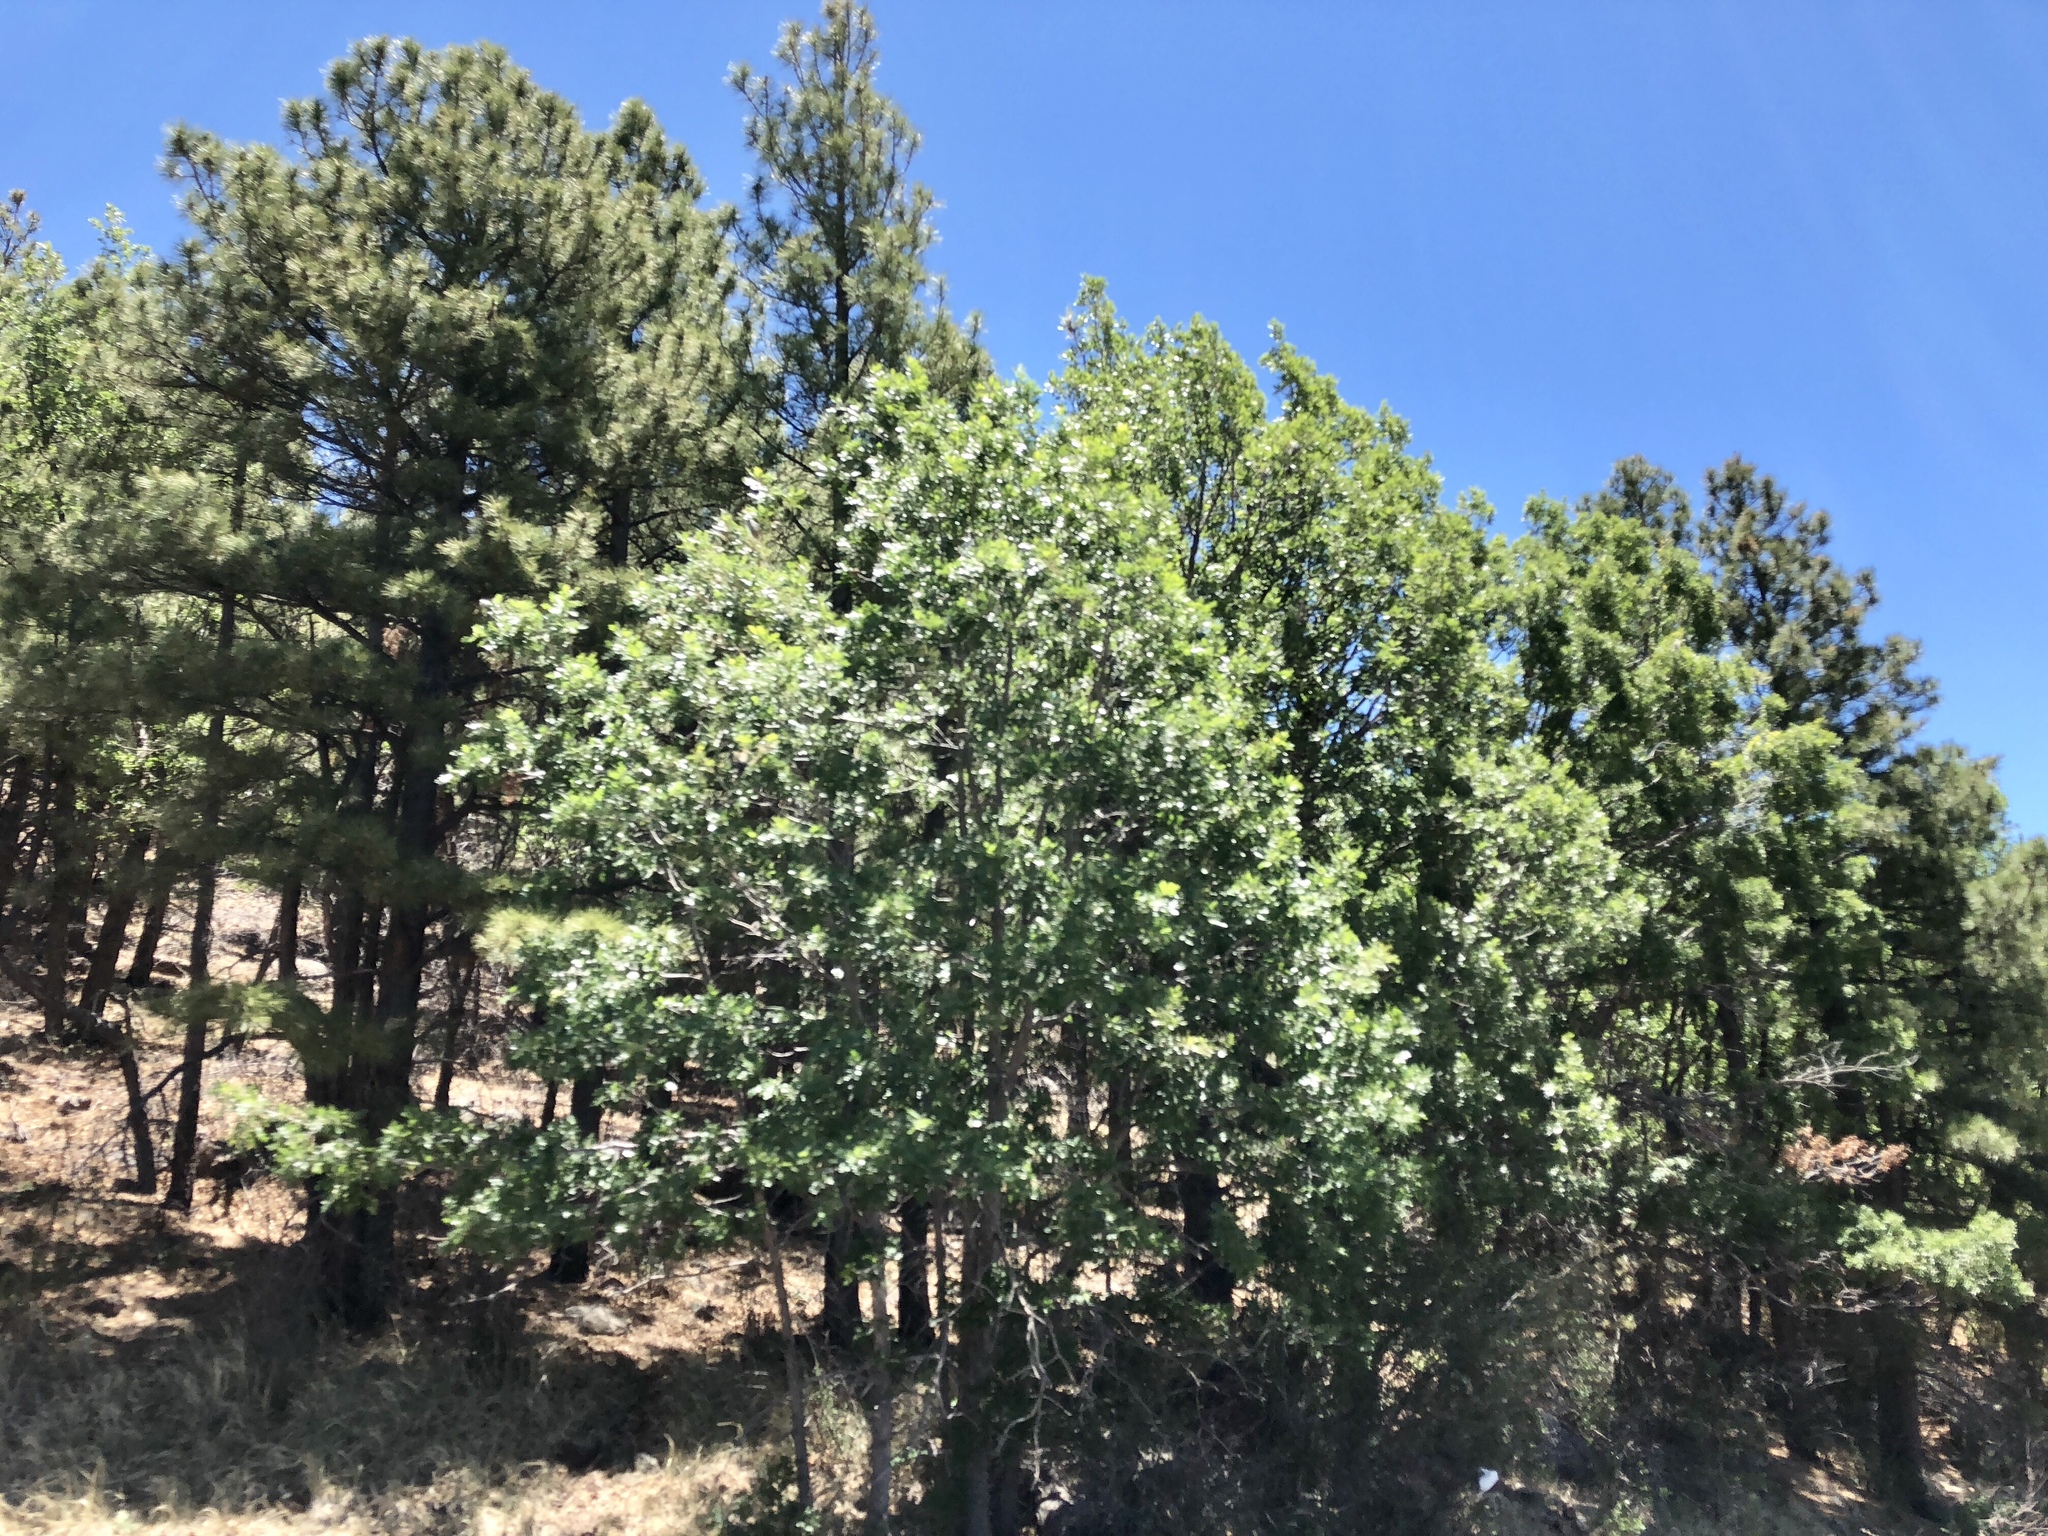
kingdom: Plantae
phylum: Tracheophyta
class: Magnoliopsida
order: Malpighiales
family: Salicaceae
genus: Populus
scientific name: Populus tremuloides
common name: Quaking aspen
